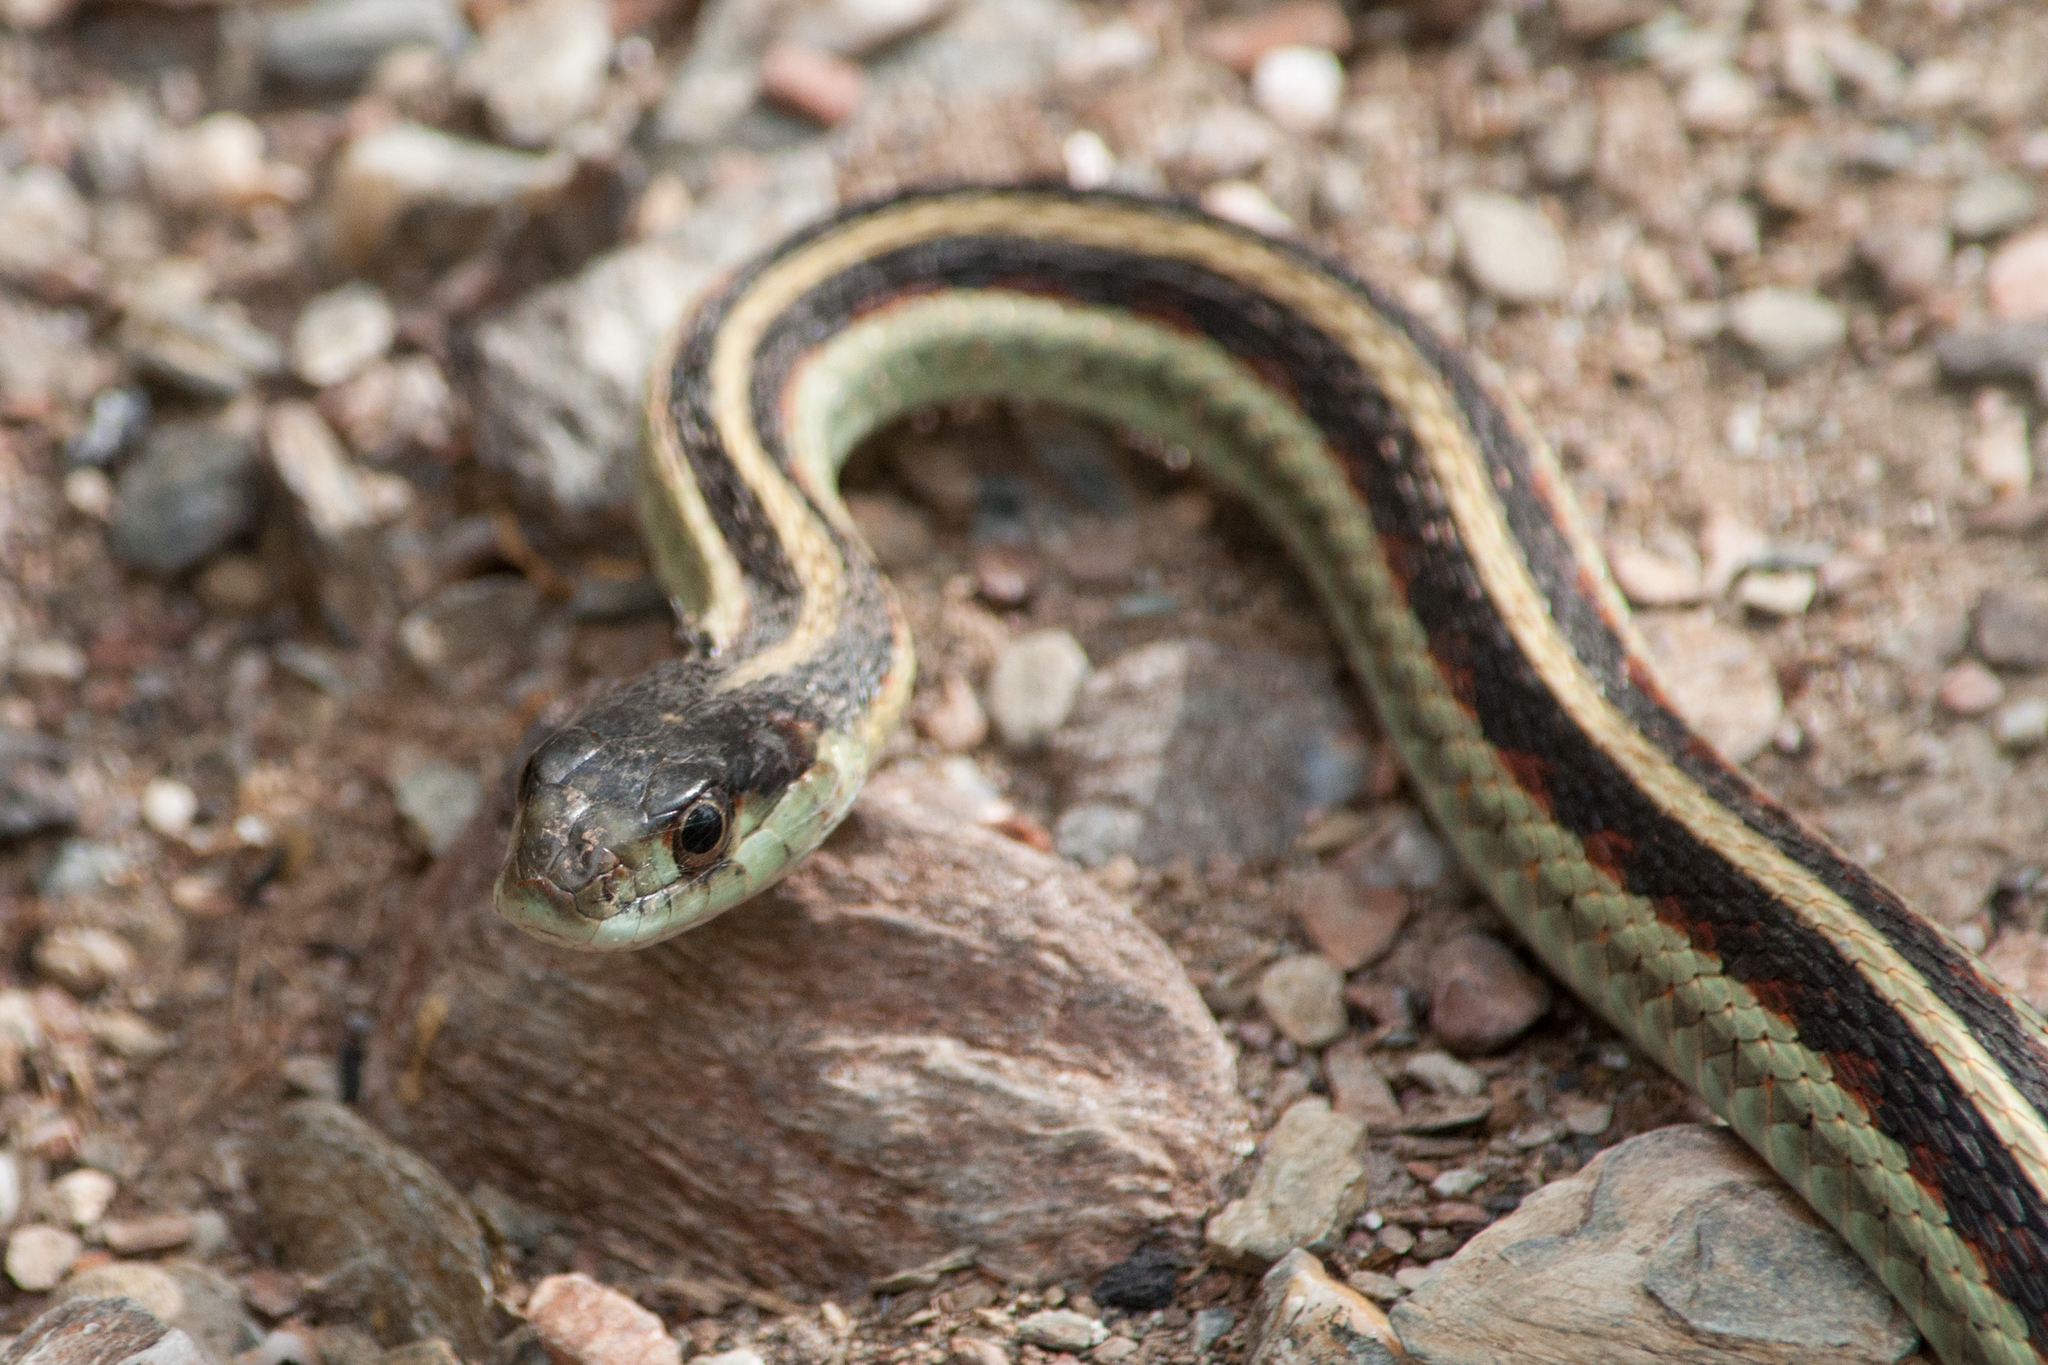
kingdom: Animalia
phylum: Chordata
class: Squamata
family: Colubridae
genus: Thamnophis
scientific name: Thamnophis sirtalis
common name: Common garter snake
